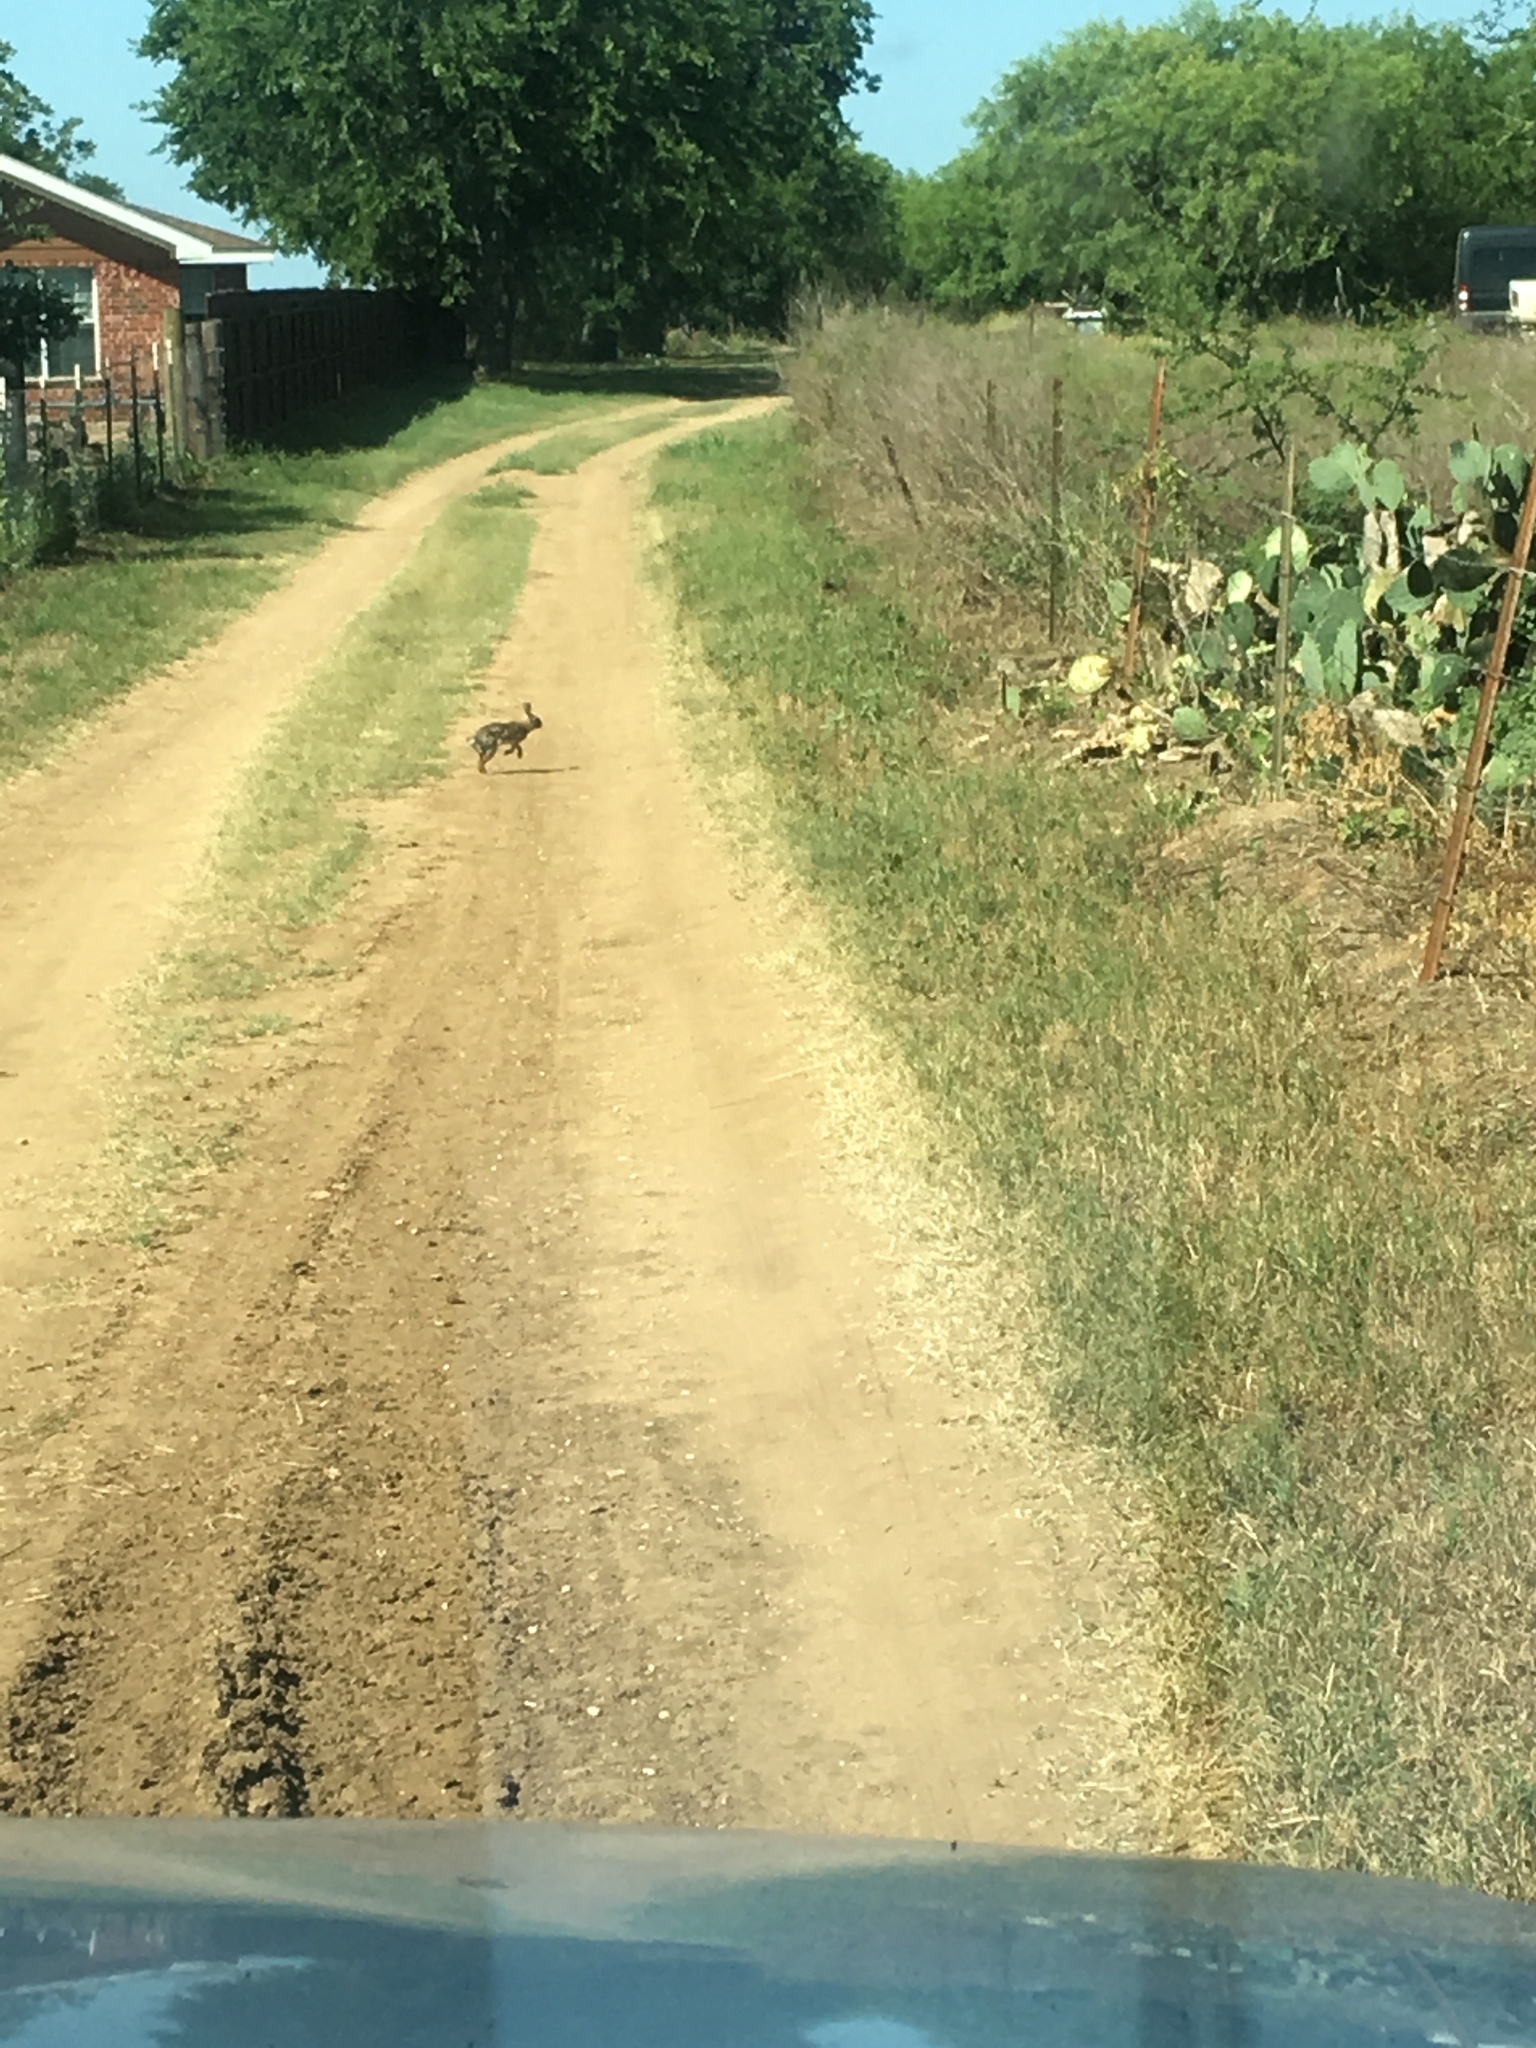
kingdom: Animalia
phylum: Chordata
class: Mammalia
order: Lagomorpha
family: Leporidae
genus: Sylvilagus
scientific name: Sylvilagus floridanus
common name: Eastern cottontail
